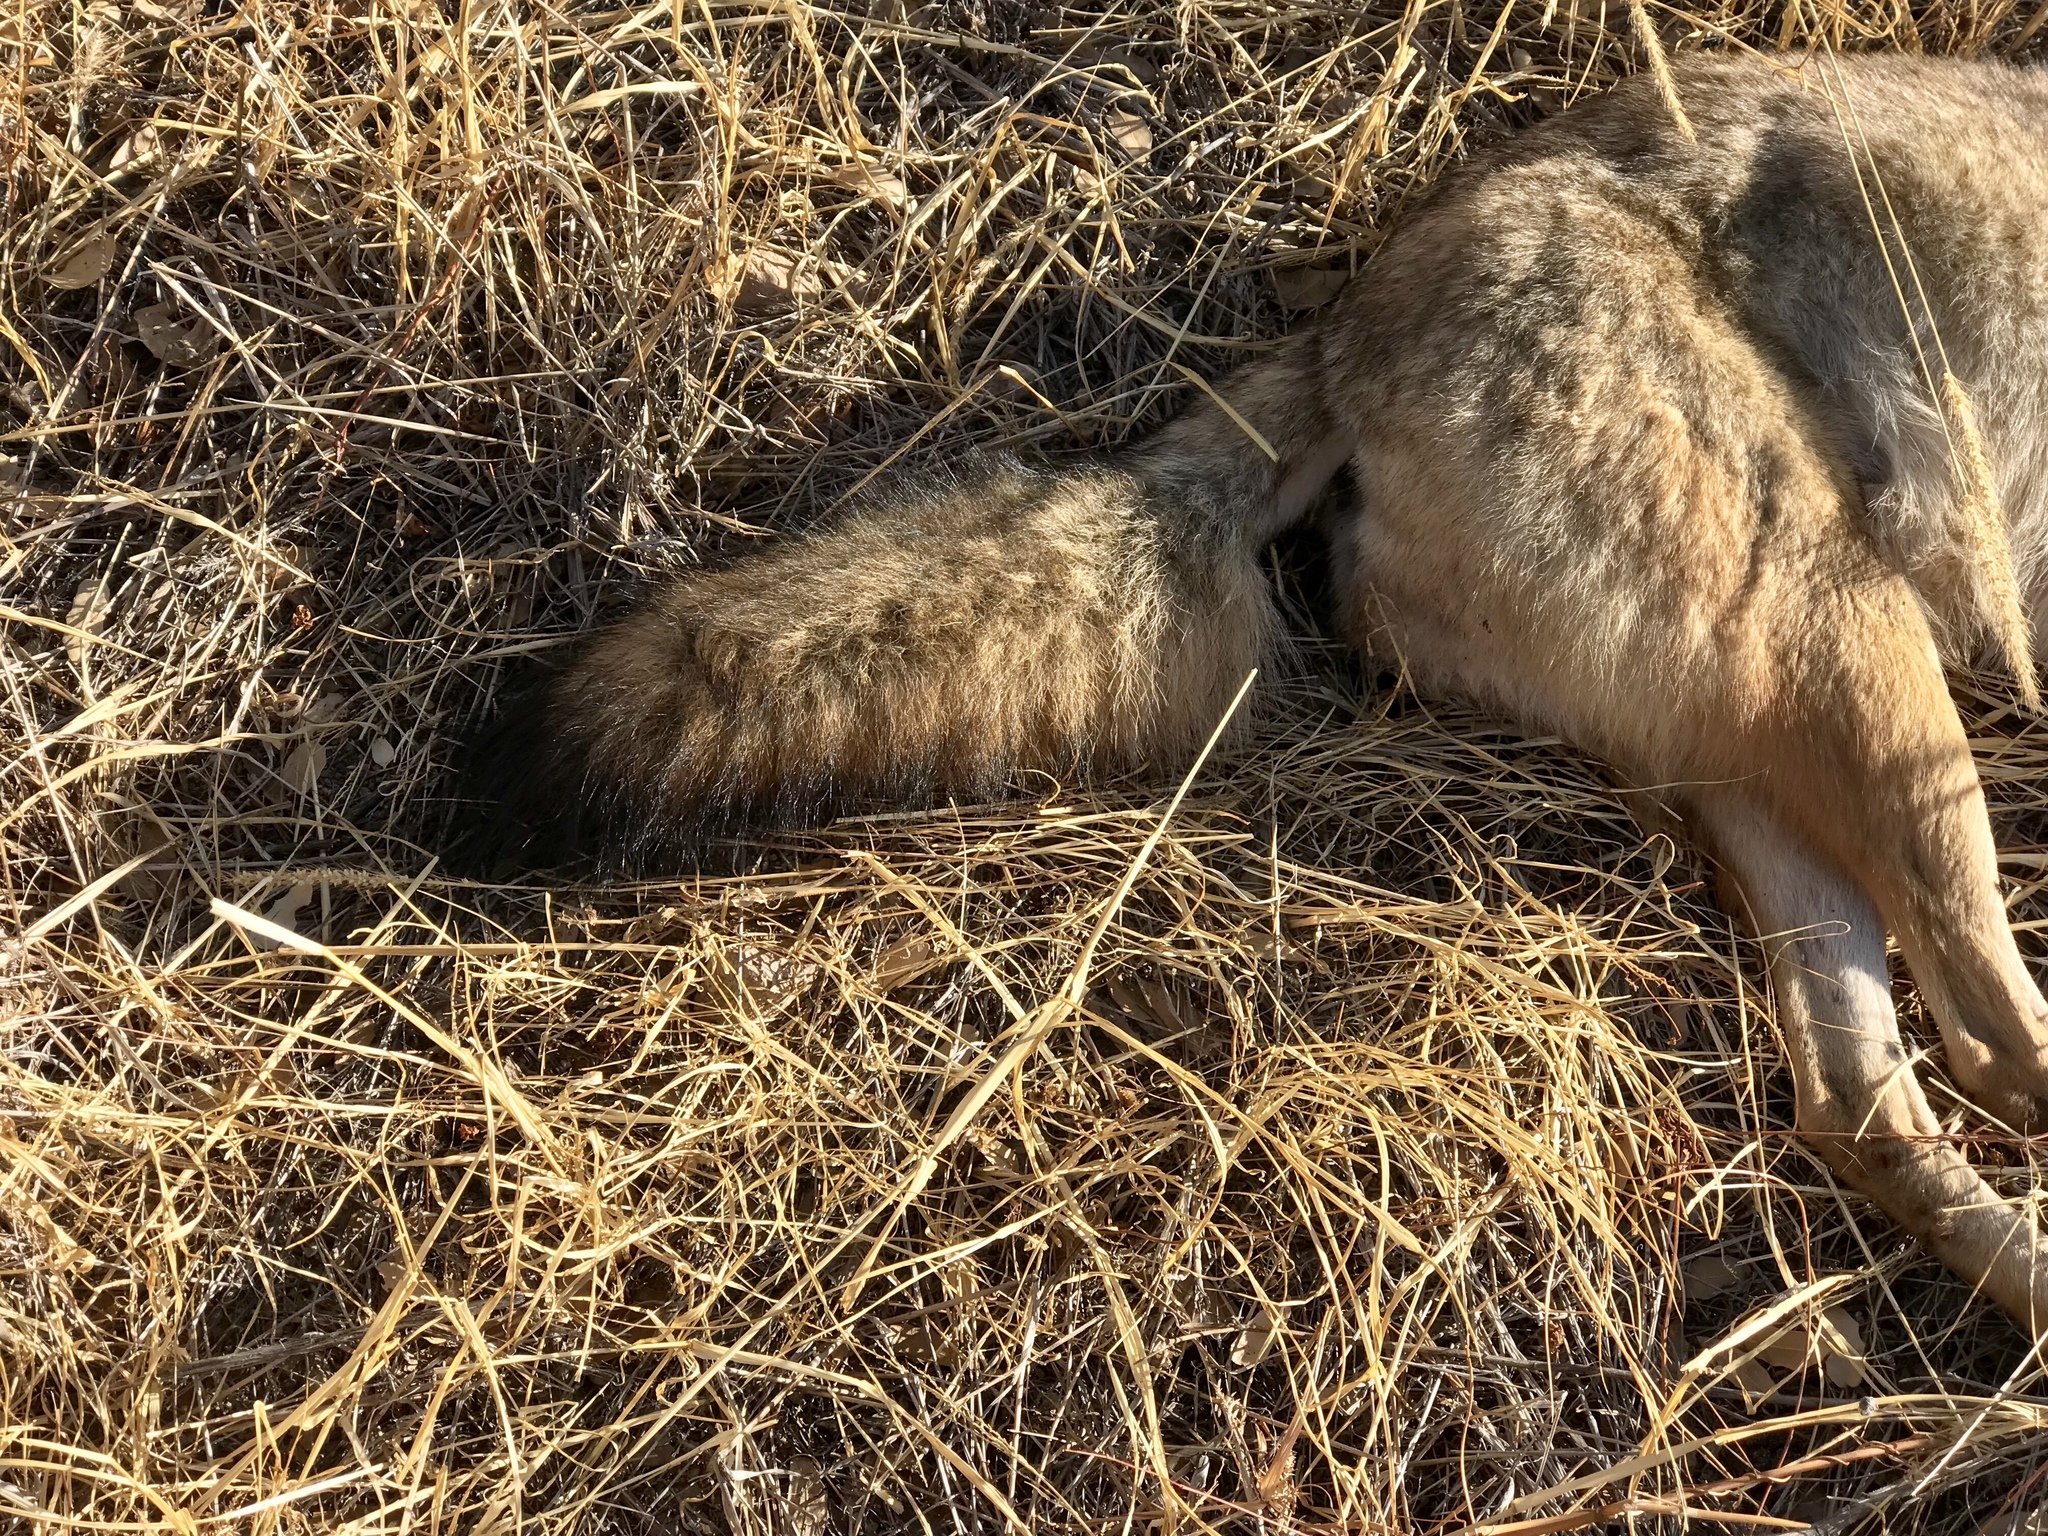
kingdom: Animalia
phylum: Chordata
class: Mammalia
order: Carnivora
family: Canidae
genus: Canis
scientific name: Canis latrans
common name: Coyote
